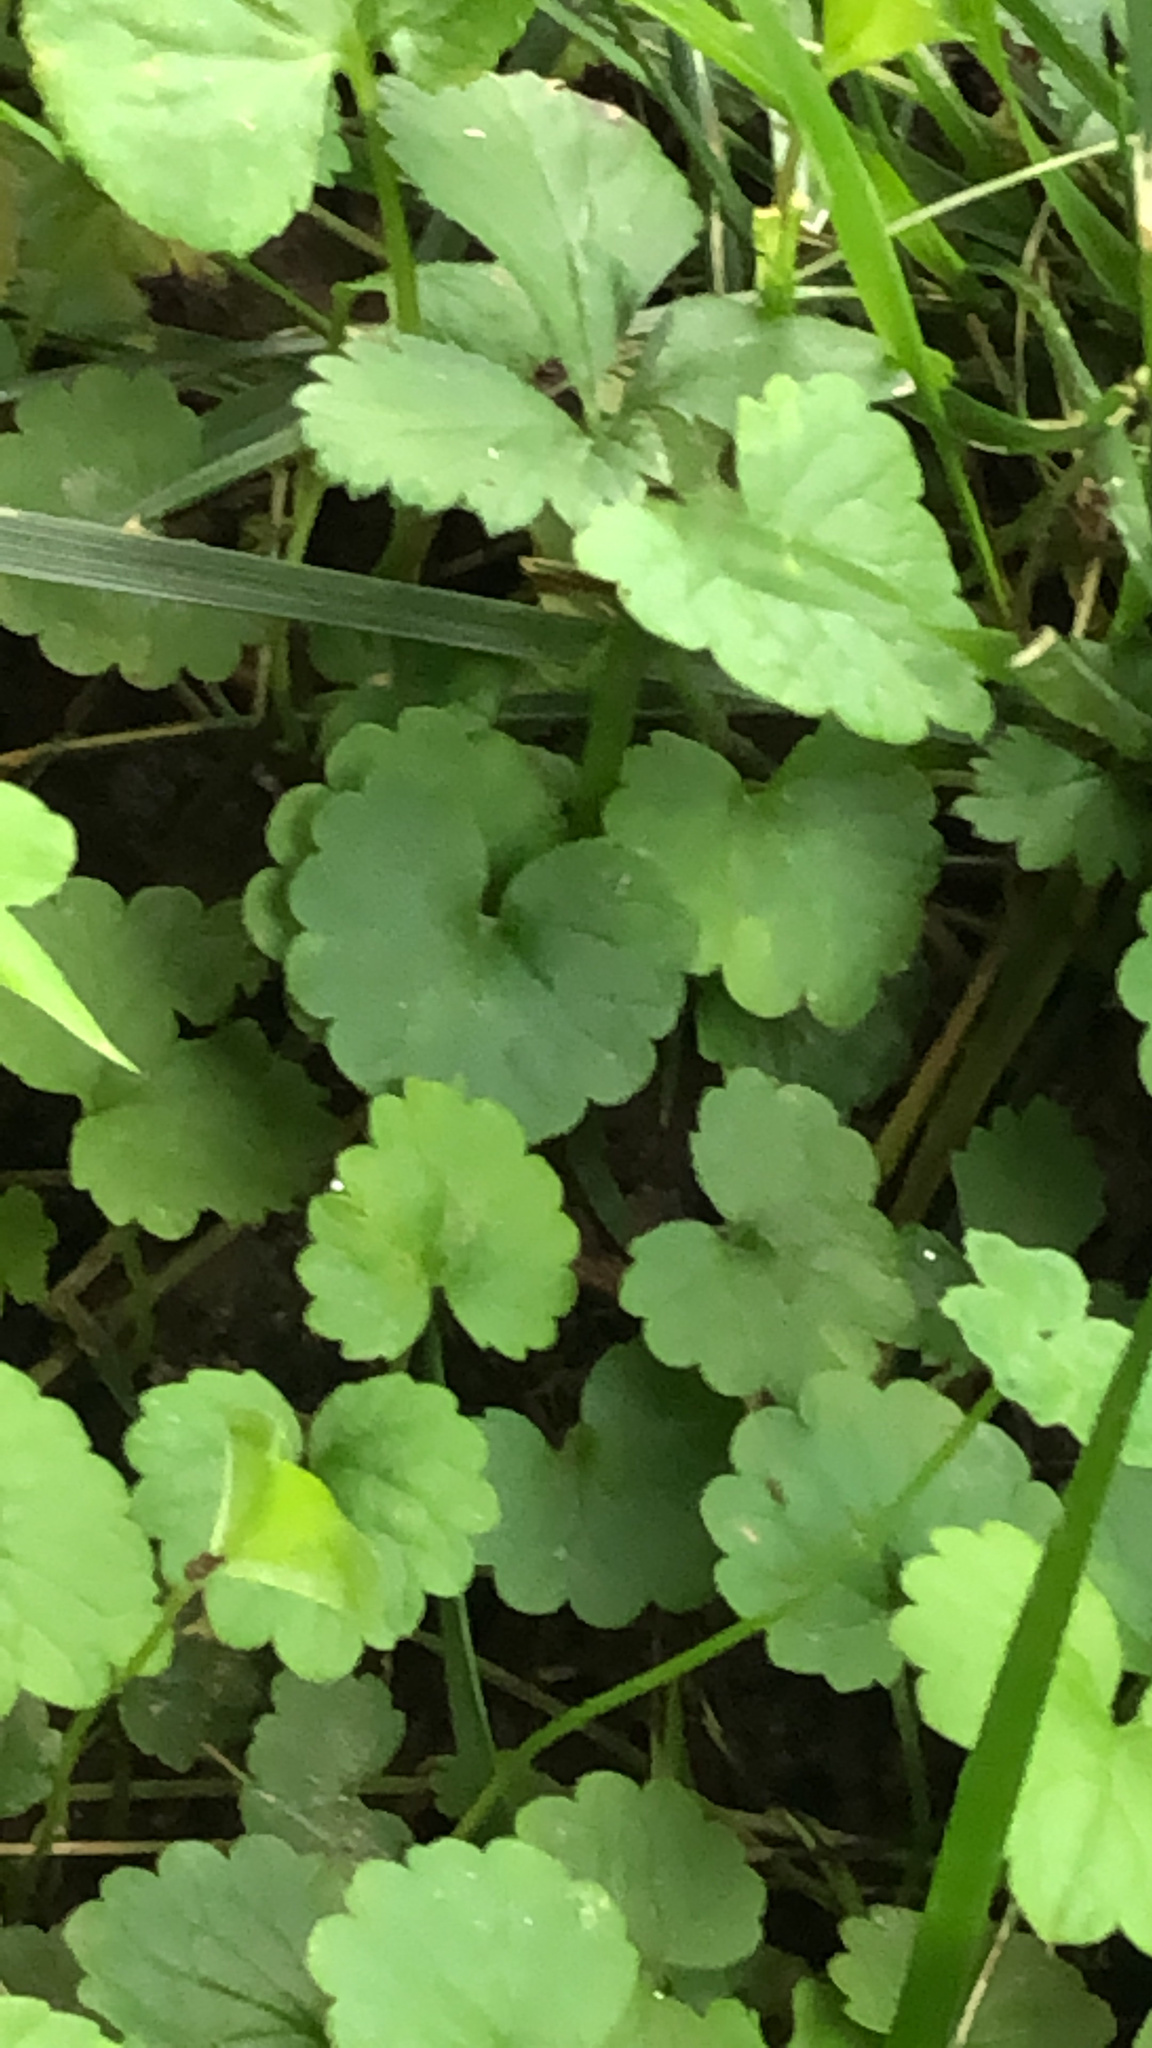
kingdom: Plantae
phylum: Tracheophyta
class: Magnoliopsida
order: Lamiales
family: Lamiaceae
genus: Glechoma
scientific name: Glechoma hederacea
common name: Ground ivy
